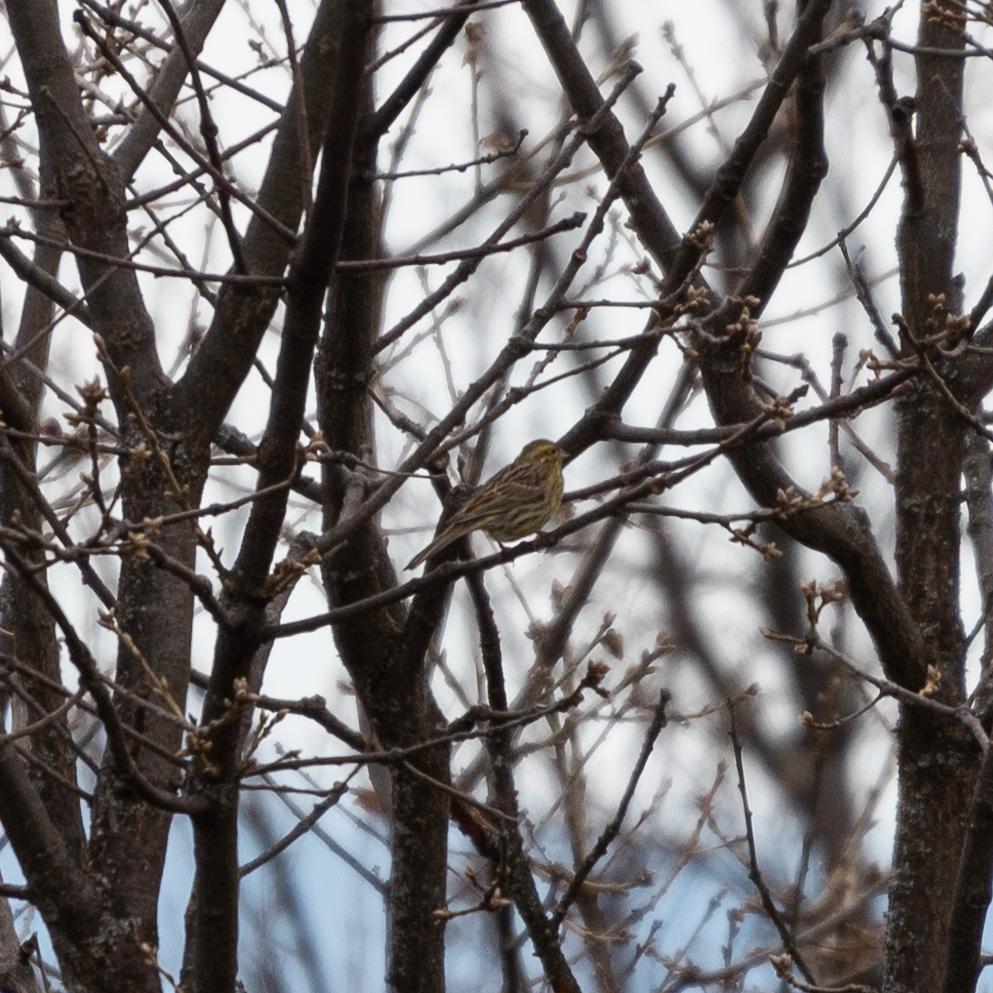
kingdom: Animalia
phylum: Chordata
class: Aves
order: Passeriformes
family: Emberizidae
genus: Emberiza
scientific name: Emberiza cirlus
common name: Cirl bunting
